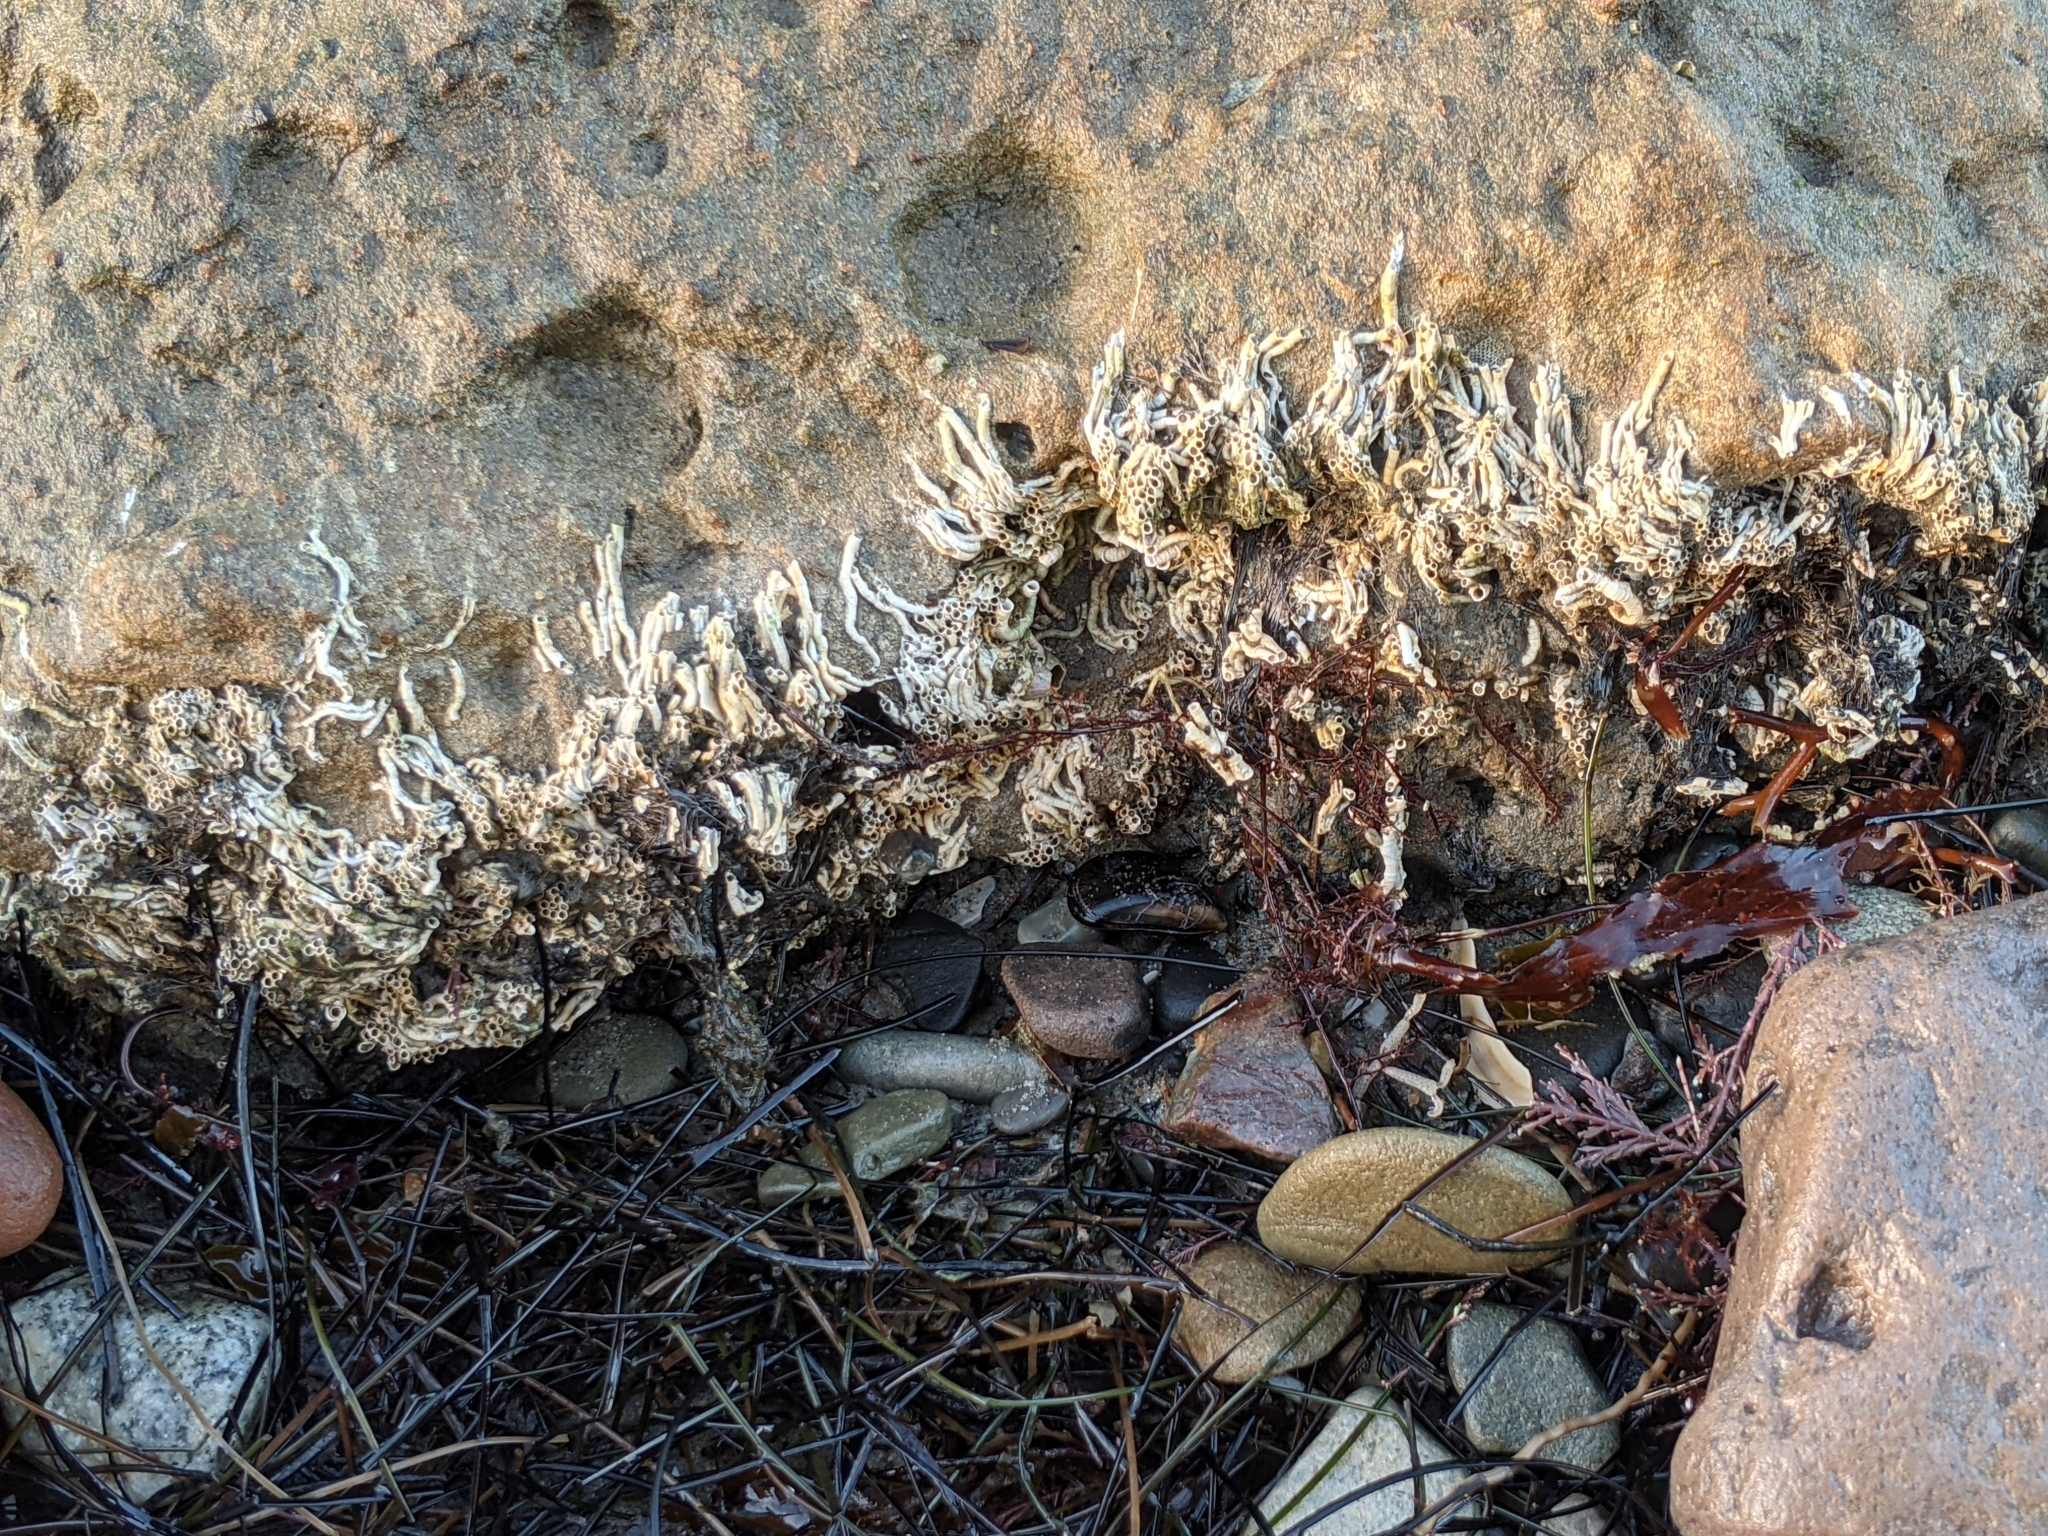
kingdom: Animalia
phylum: Annelida
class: Polychaeta
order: Sabellida
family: Serpulidae
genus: Ficopomatus
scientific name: Ficopomatus enigmaticus
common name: Australian tubeworm
